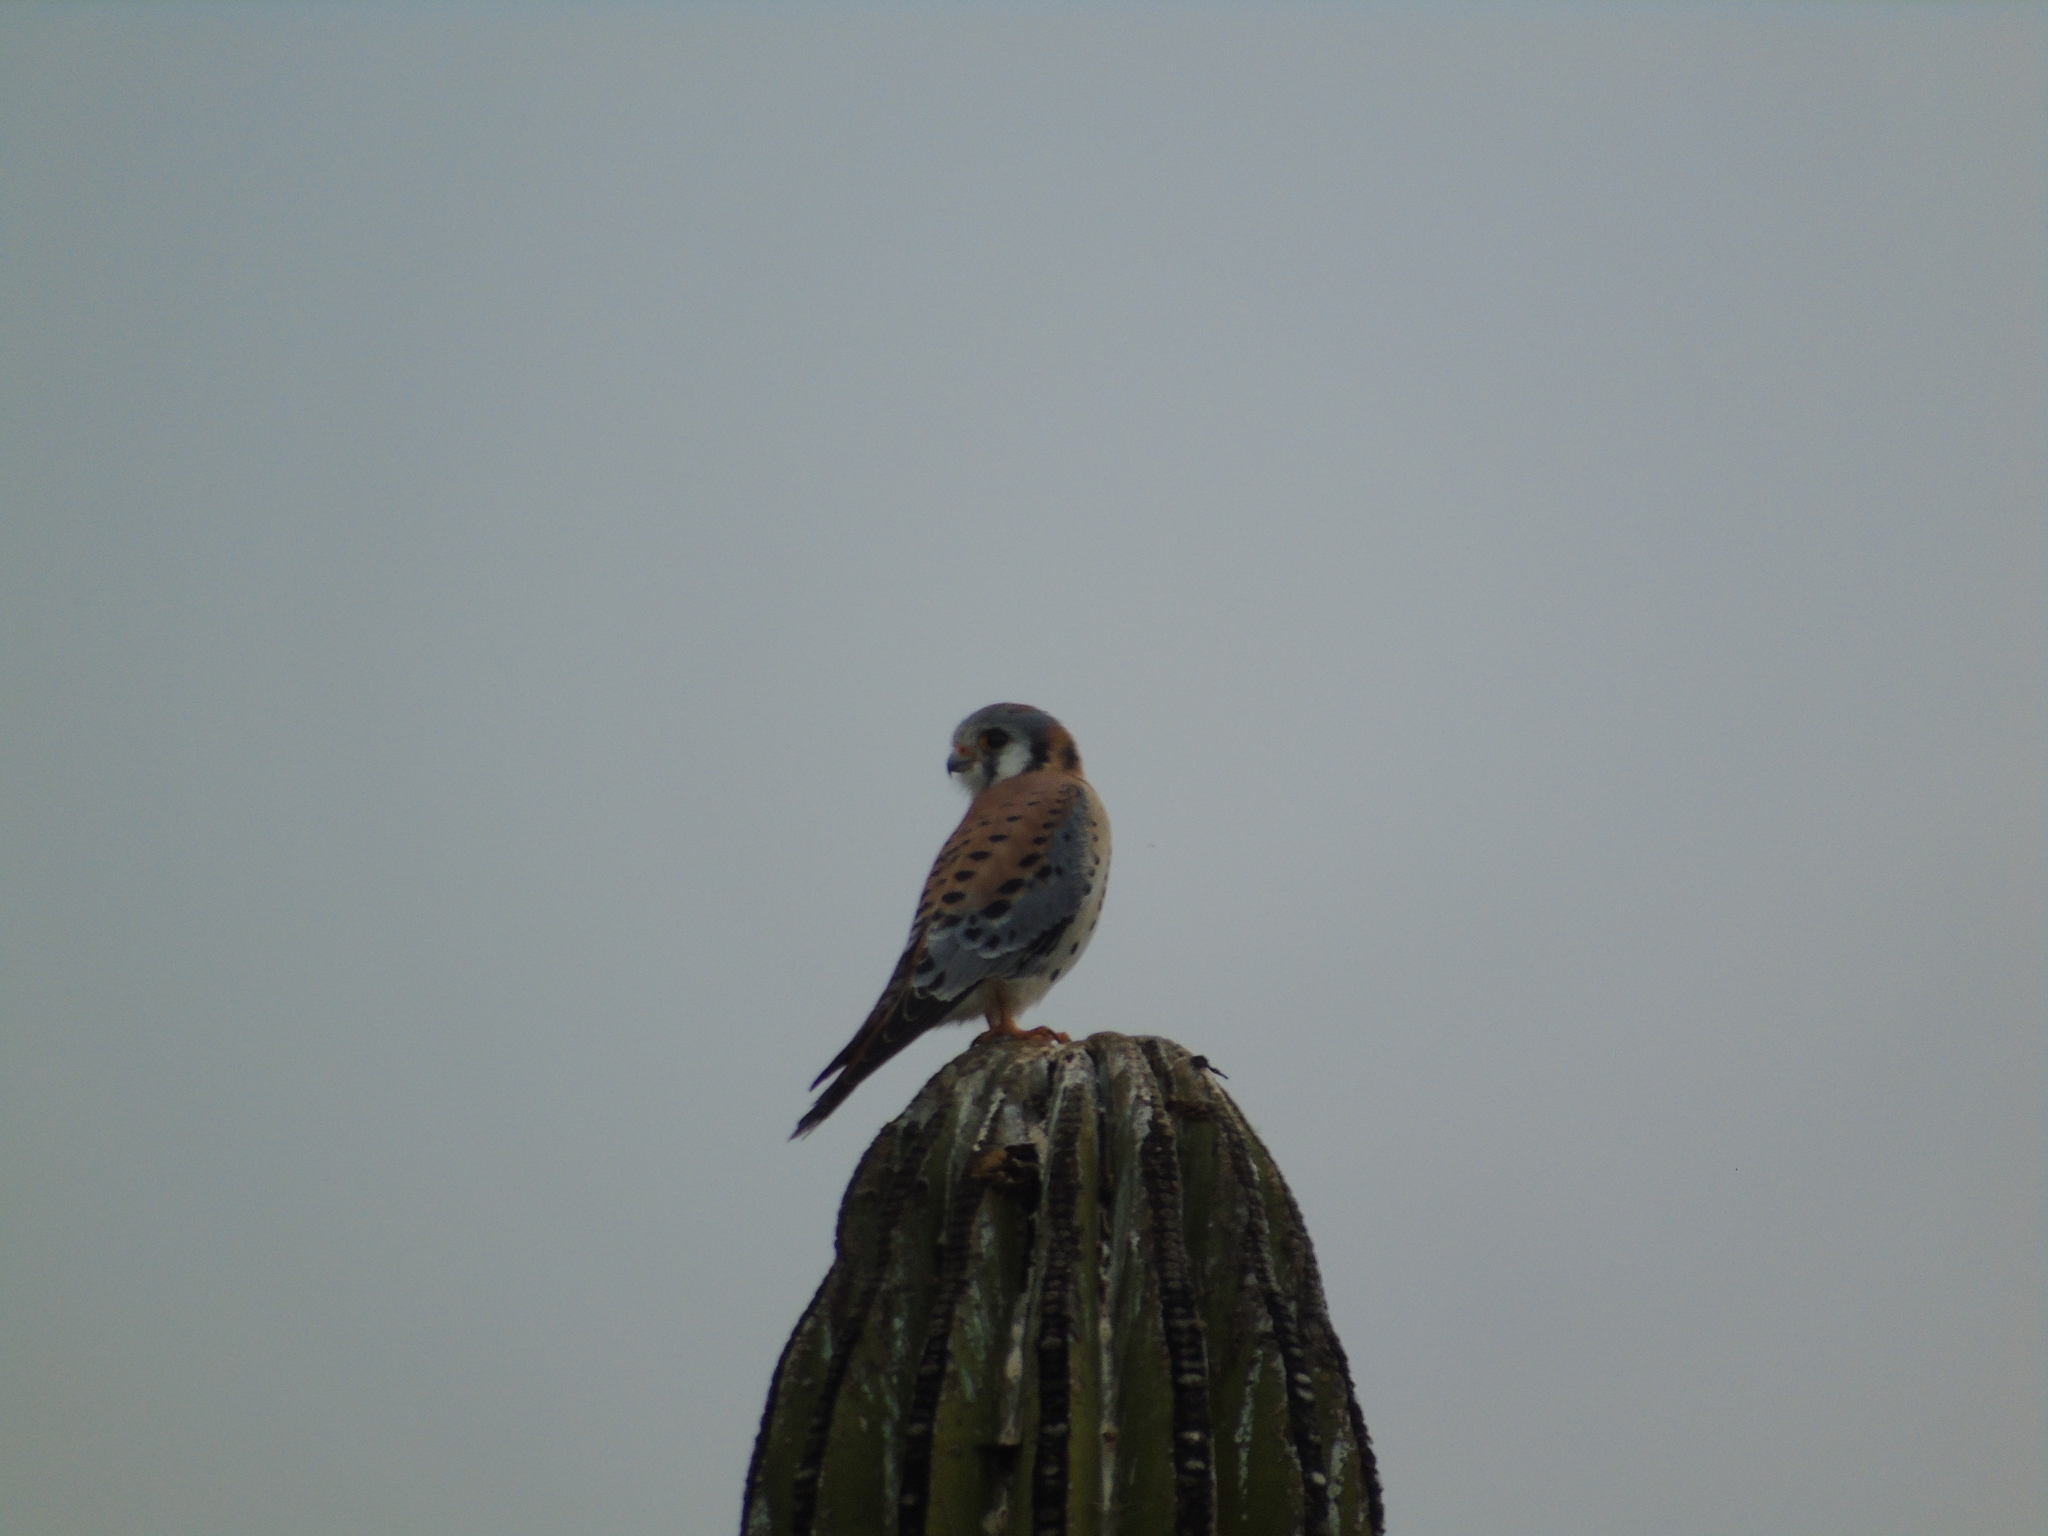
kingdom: Animalia
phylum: Chordata
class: Aves
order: Falconiformes
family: Falconidae
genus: Falco
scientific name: Falco sparverius
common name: American kestrel
